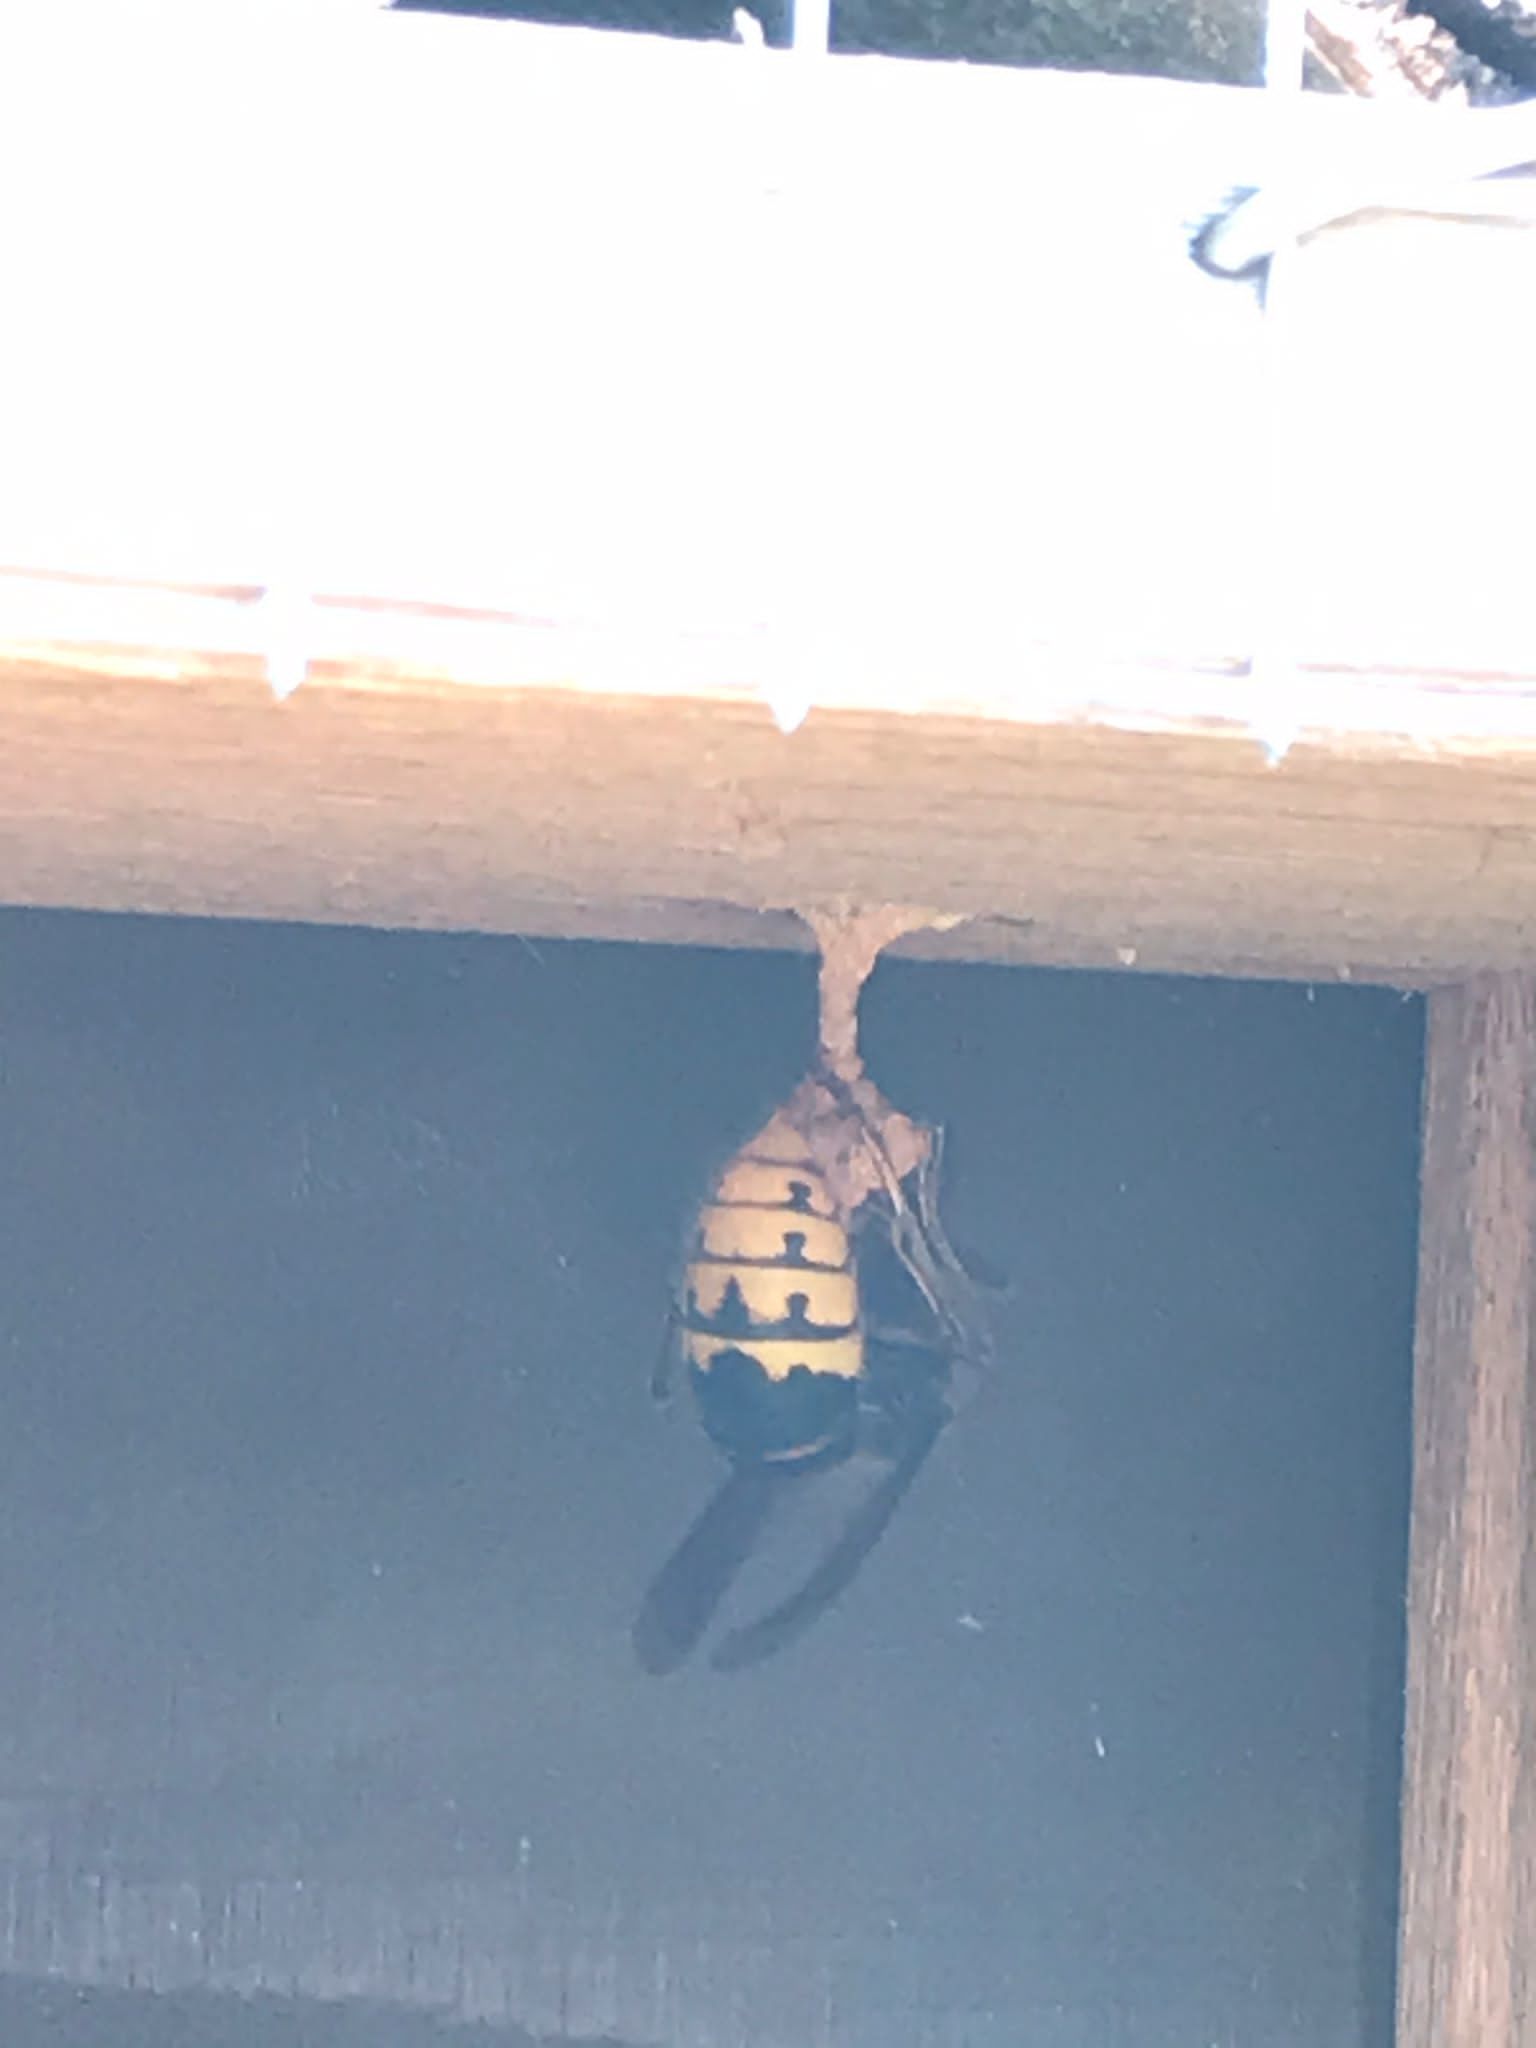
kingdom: Animalia
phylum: Arthropoda
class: Insecta
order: Hymenoptera
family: Vespidae
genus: Vespa
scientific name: Vespa crabro
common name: Hornet
